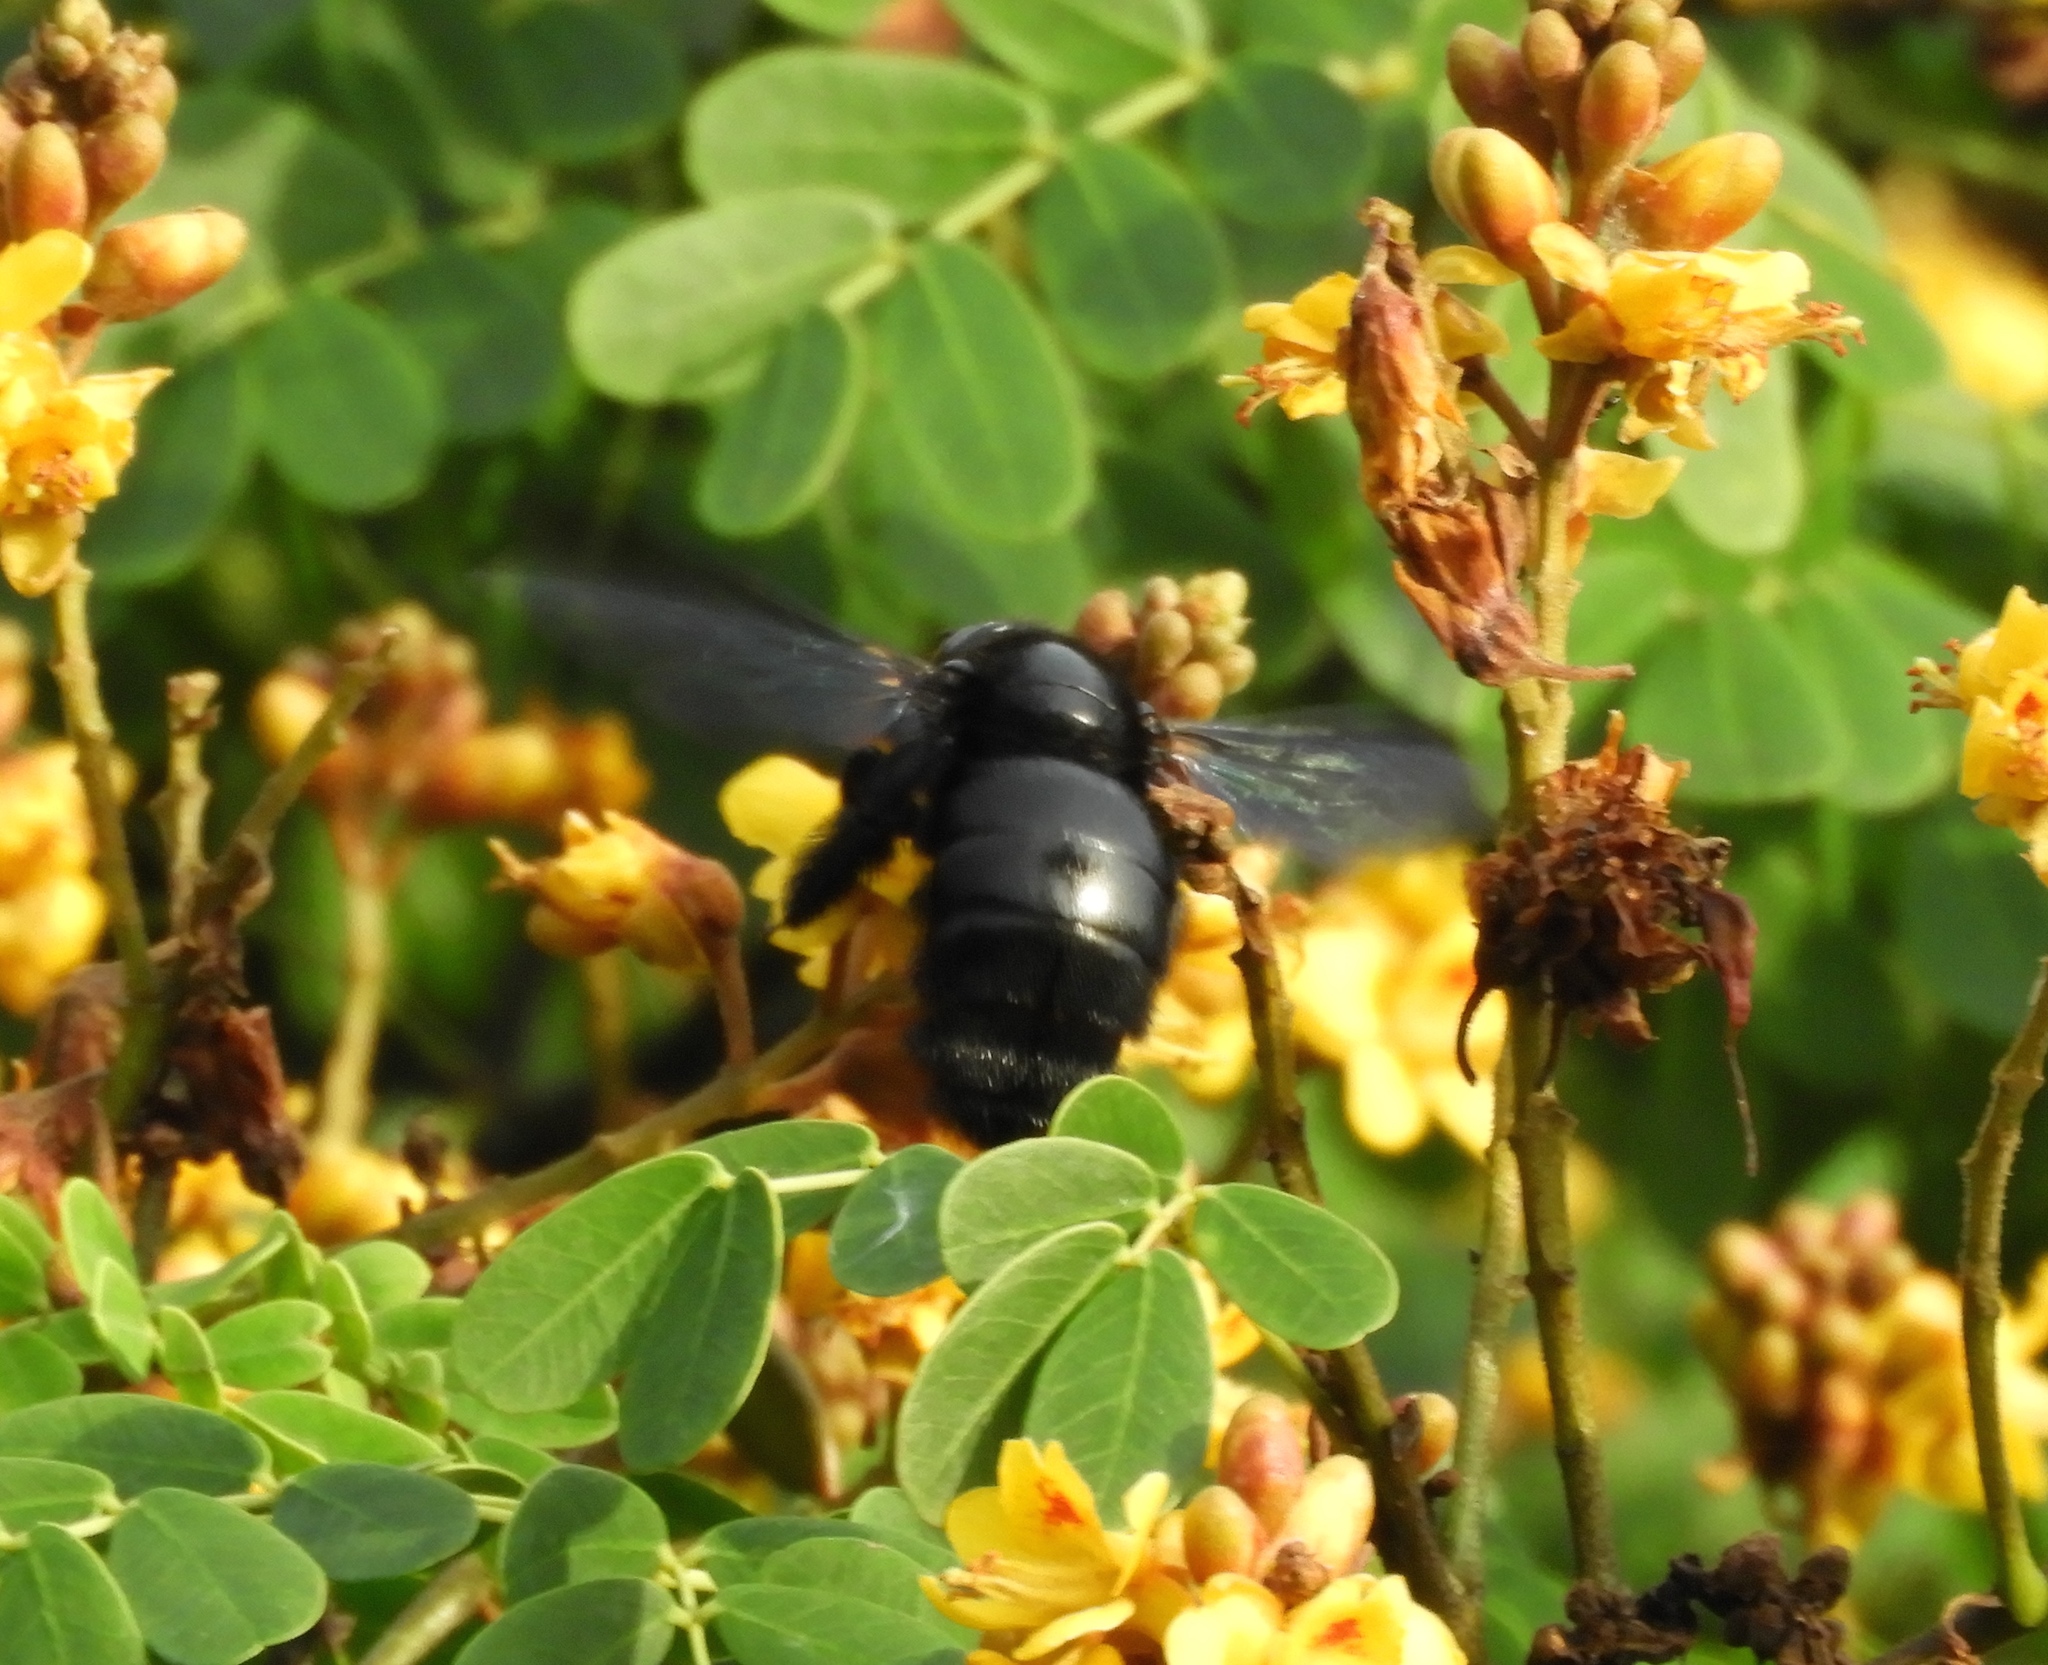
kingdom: Animalia
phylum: Arthropoda
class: Insecta
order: Hymenoptera
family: Apidae
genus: Xylocopa
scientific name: Xylocopa
